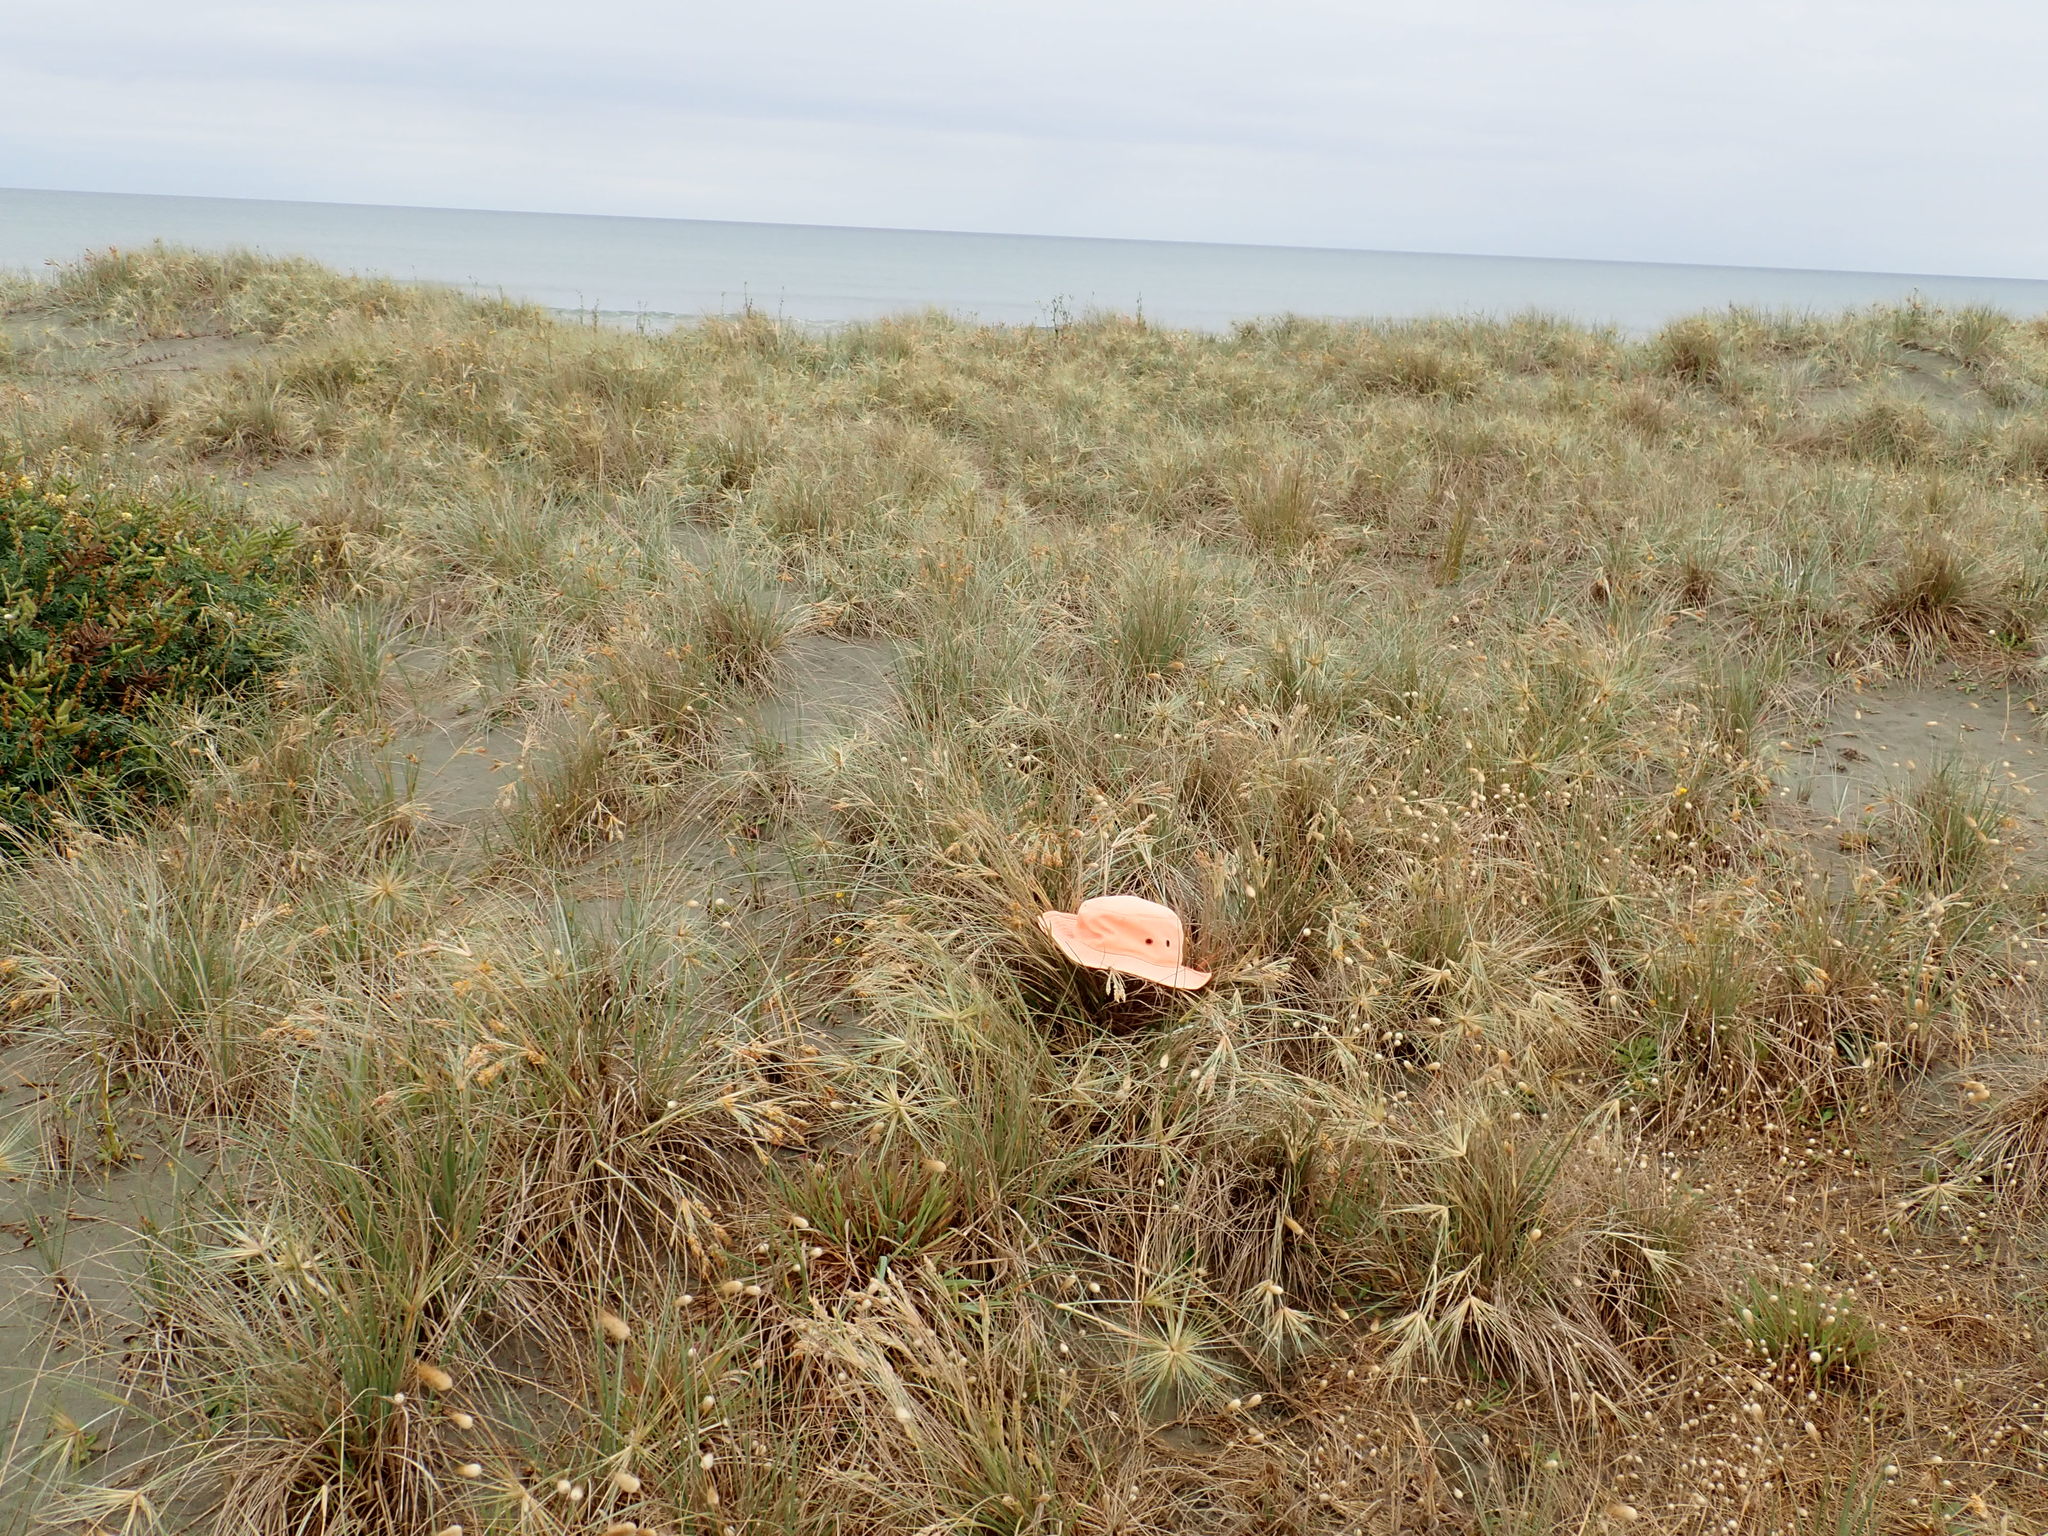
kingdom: Animalia
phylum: Arthropoda
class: Insecta
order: Dermaptera
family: Forficulidae
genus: Forficula
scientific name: Forficula
